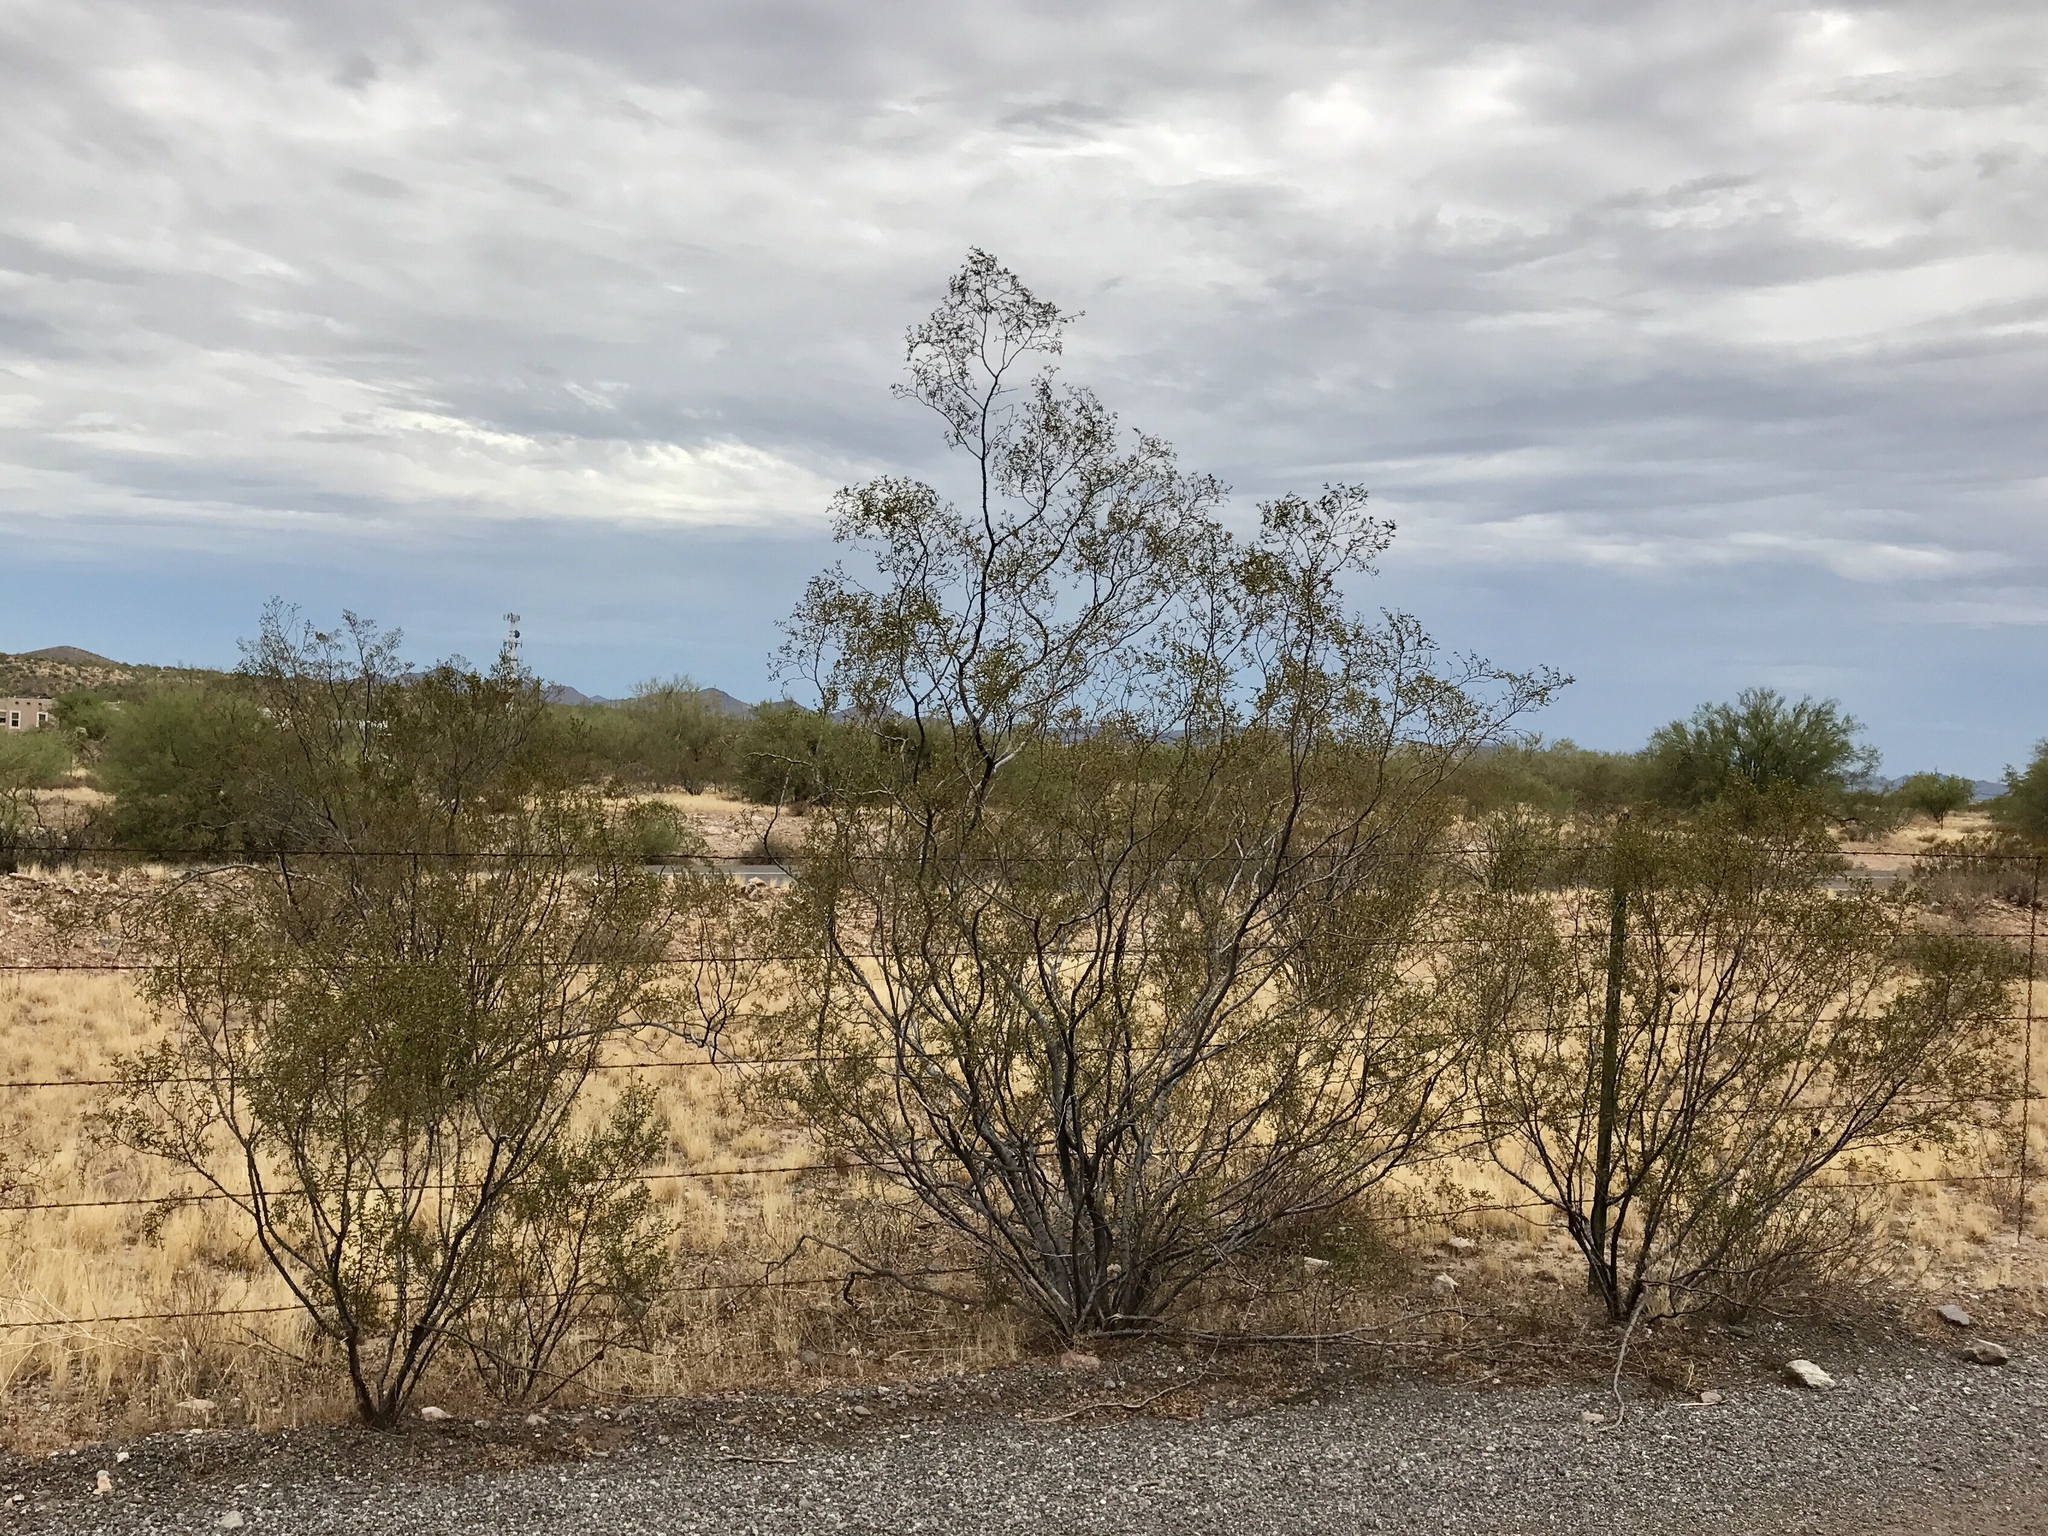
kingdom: Plantae
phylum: Tracheophyta
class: Magnoliopsida
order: Zygophyllales
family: Zygophyllaceae
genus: Larrea
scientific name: Larrea tridentata
